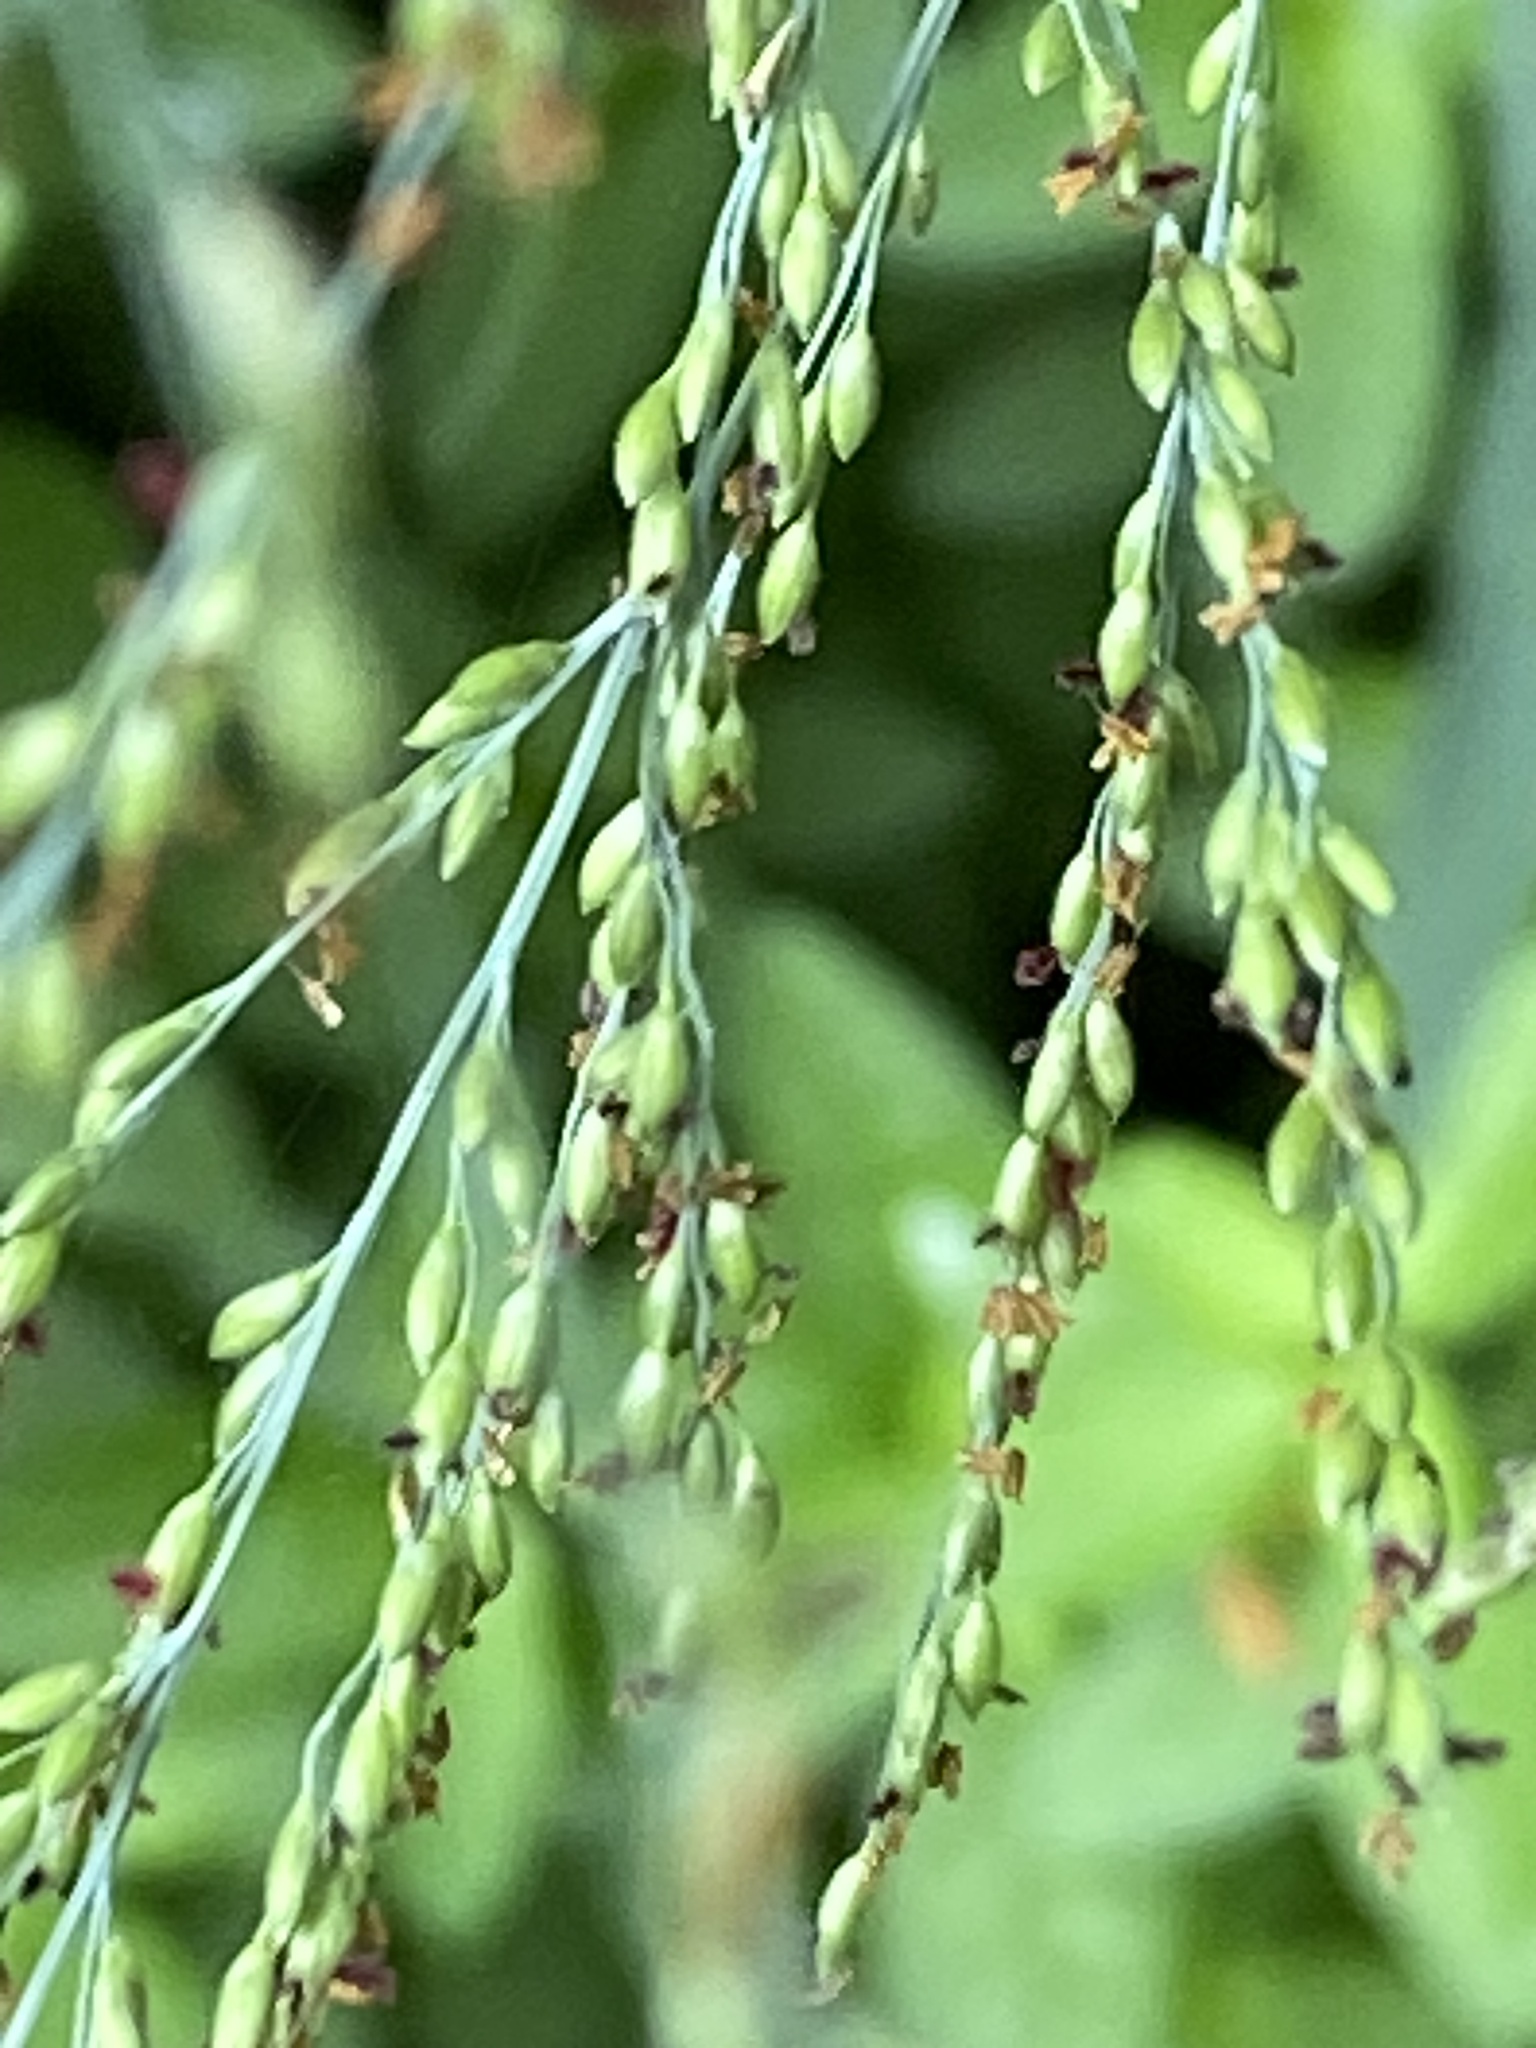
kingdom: Plantae
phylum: Tracheophyta
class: Liliopsida
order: Poales
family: Poaceae
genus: Megathyrsus
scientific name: Megathyrsus maximus
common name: Guineagrass
